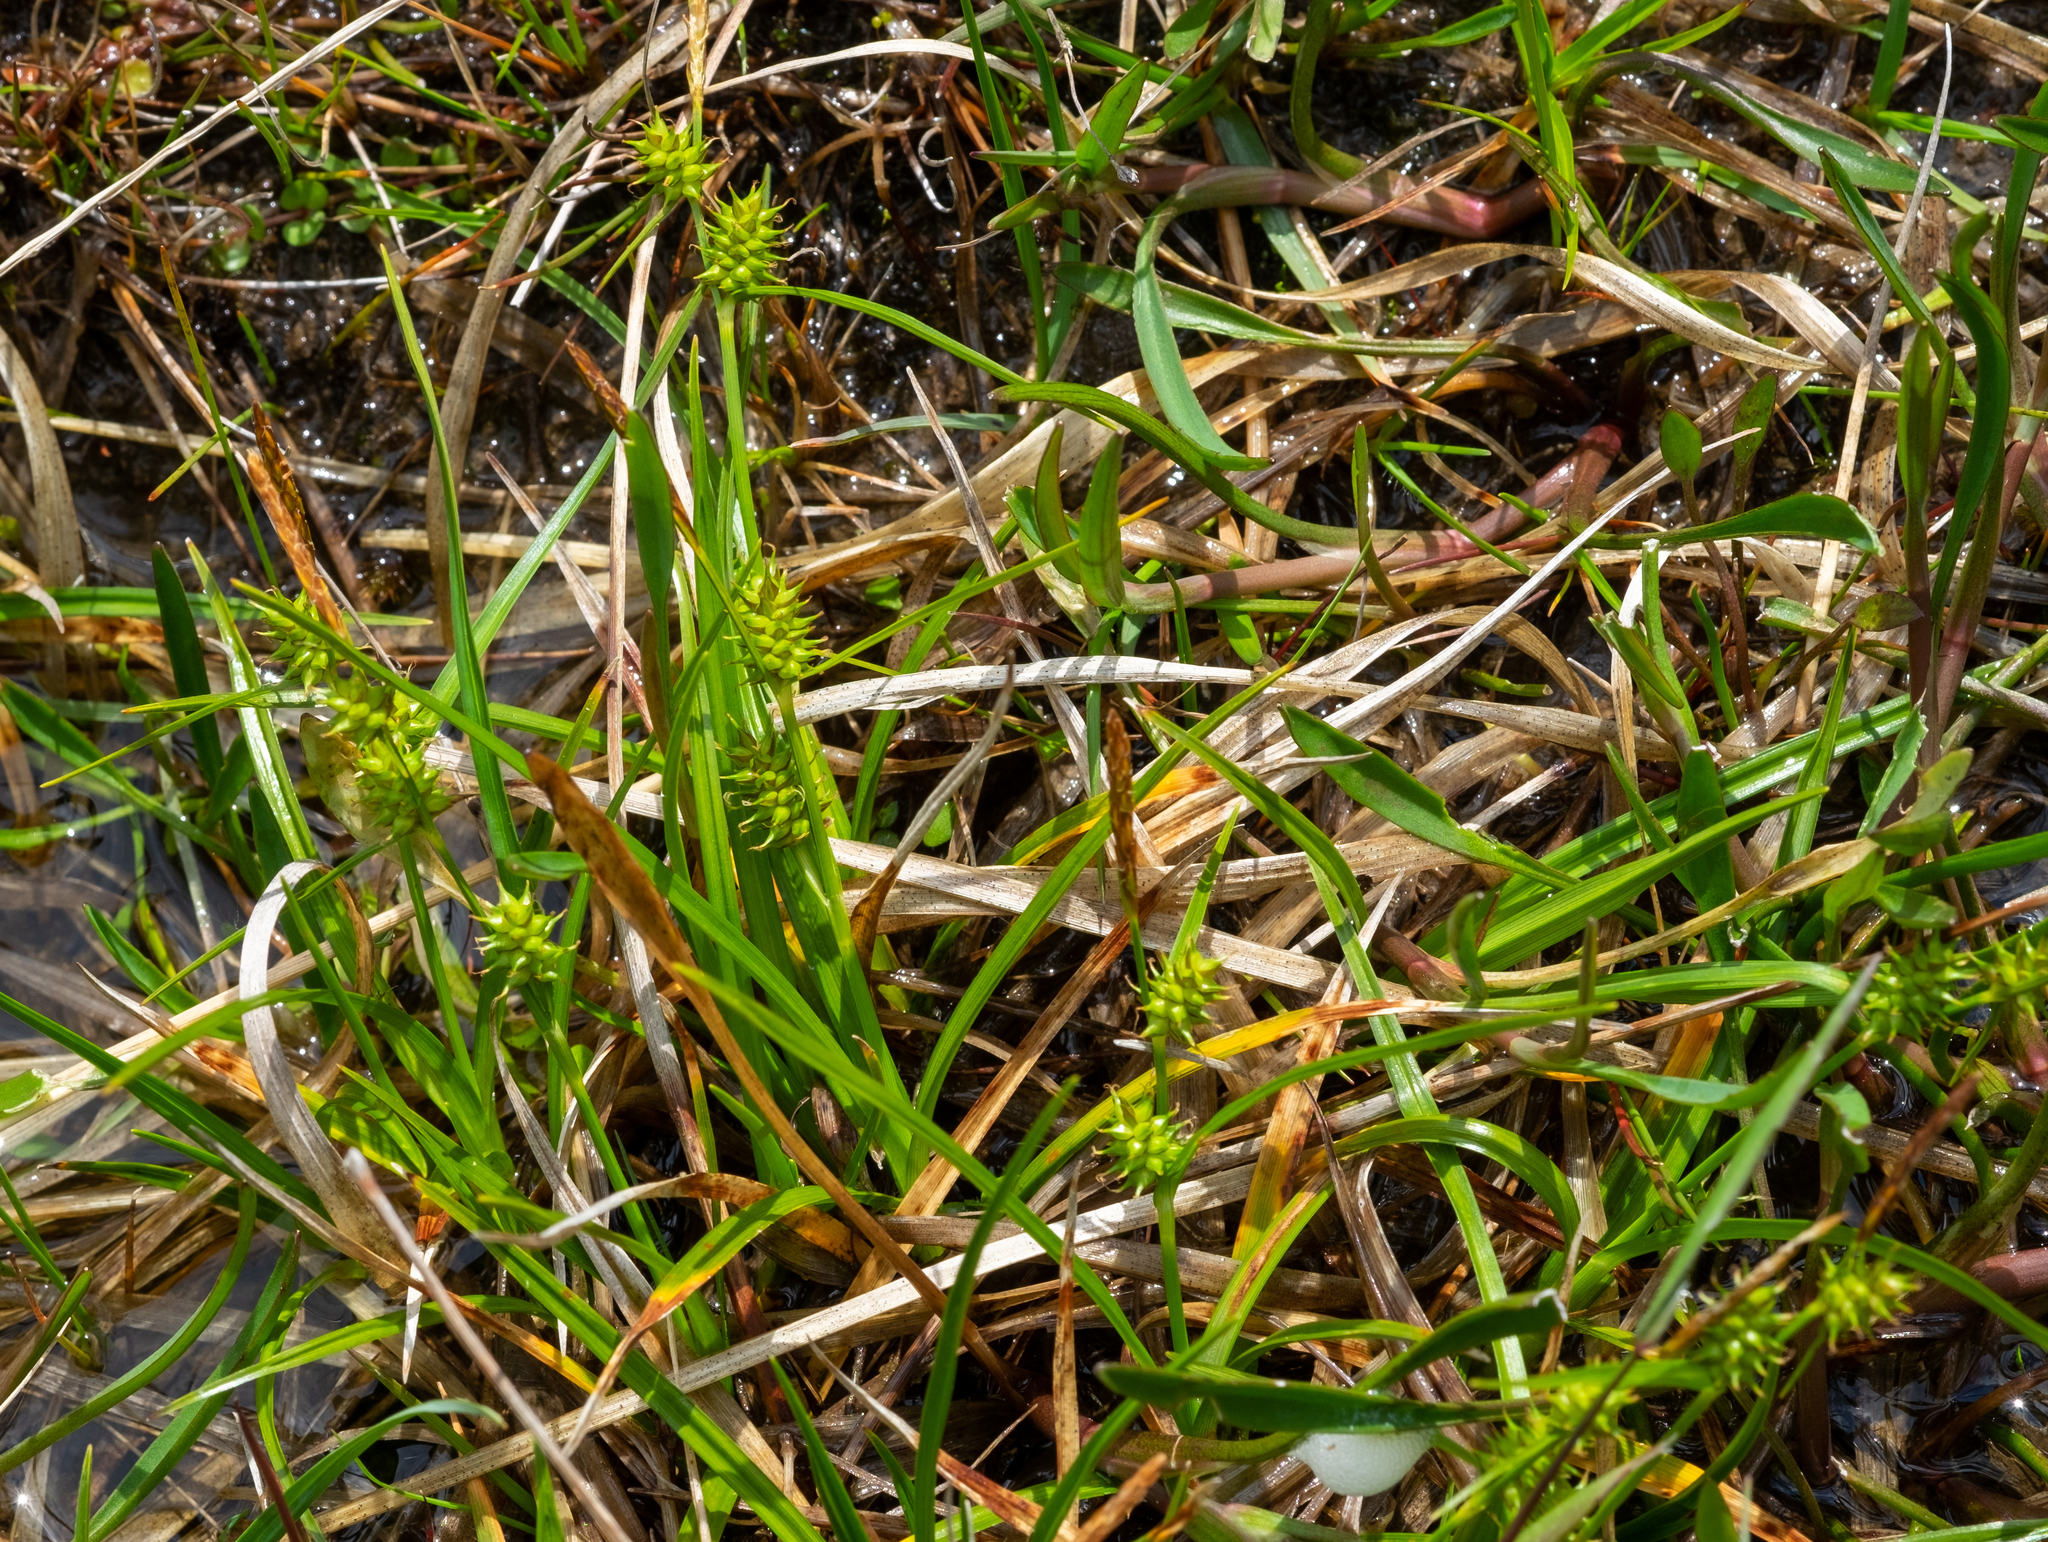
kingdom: Plantae
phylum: Tracheophyta
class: Liliopsida
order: Poales
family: Cyperaceae
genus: Carex
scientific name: Carex
